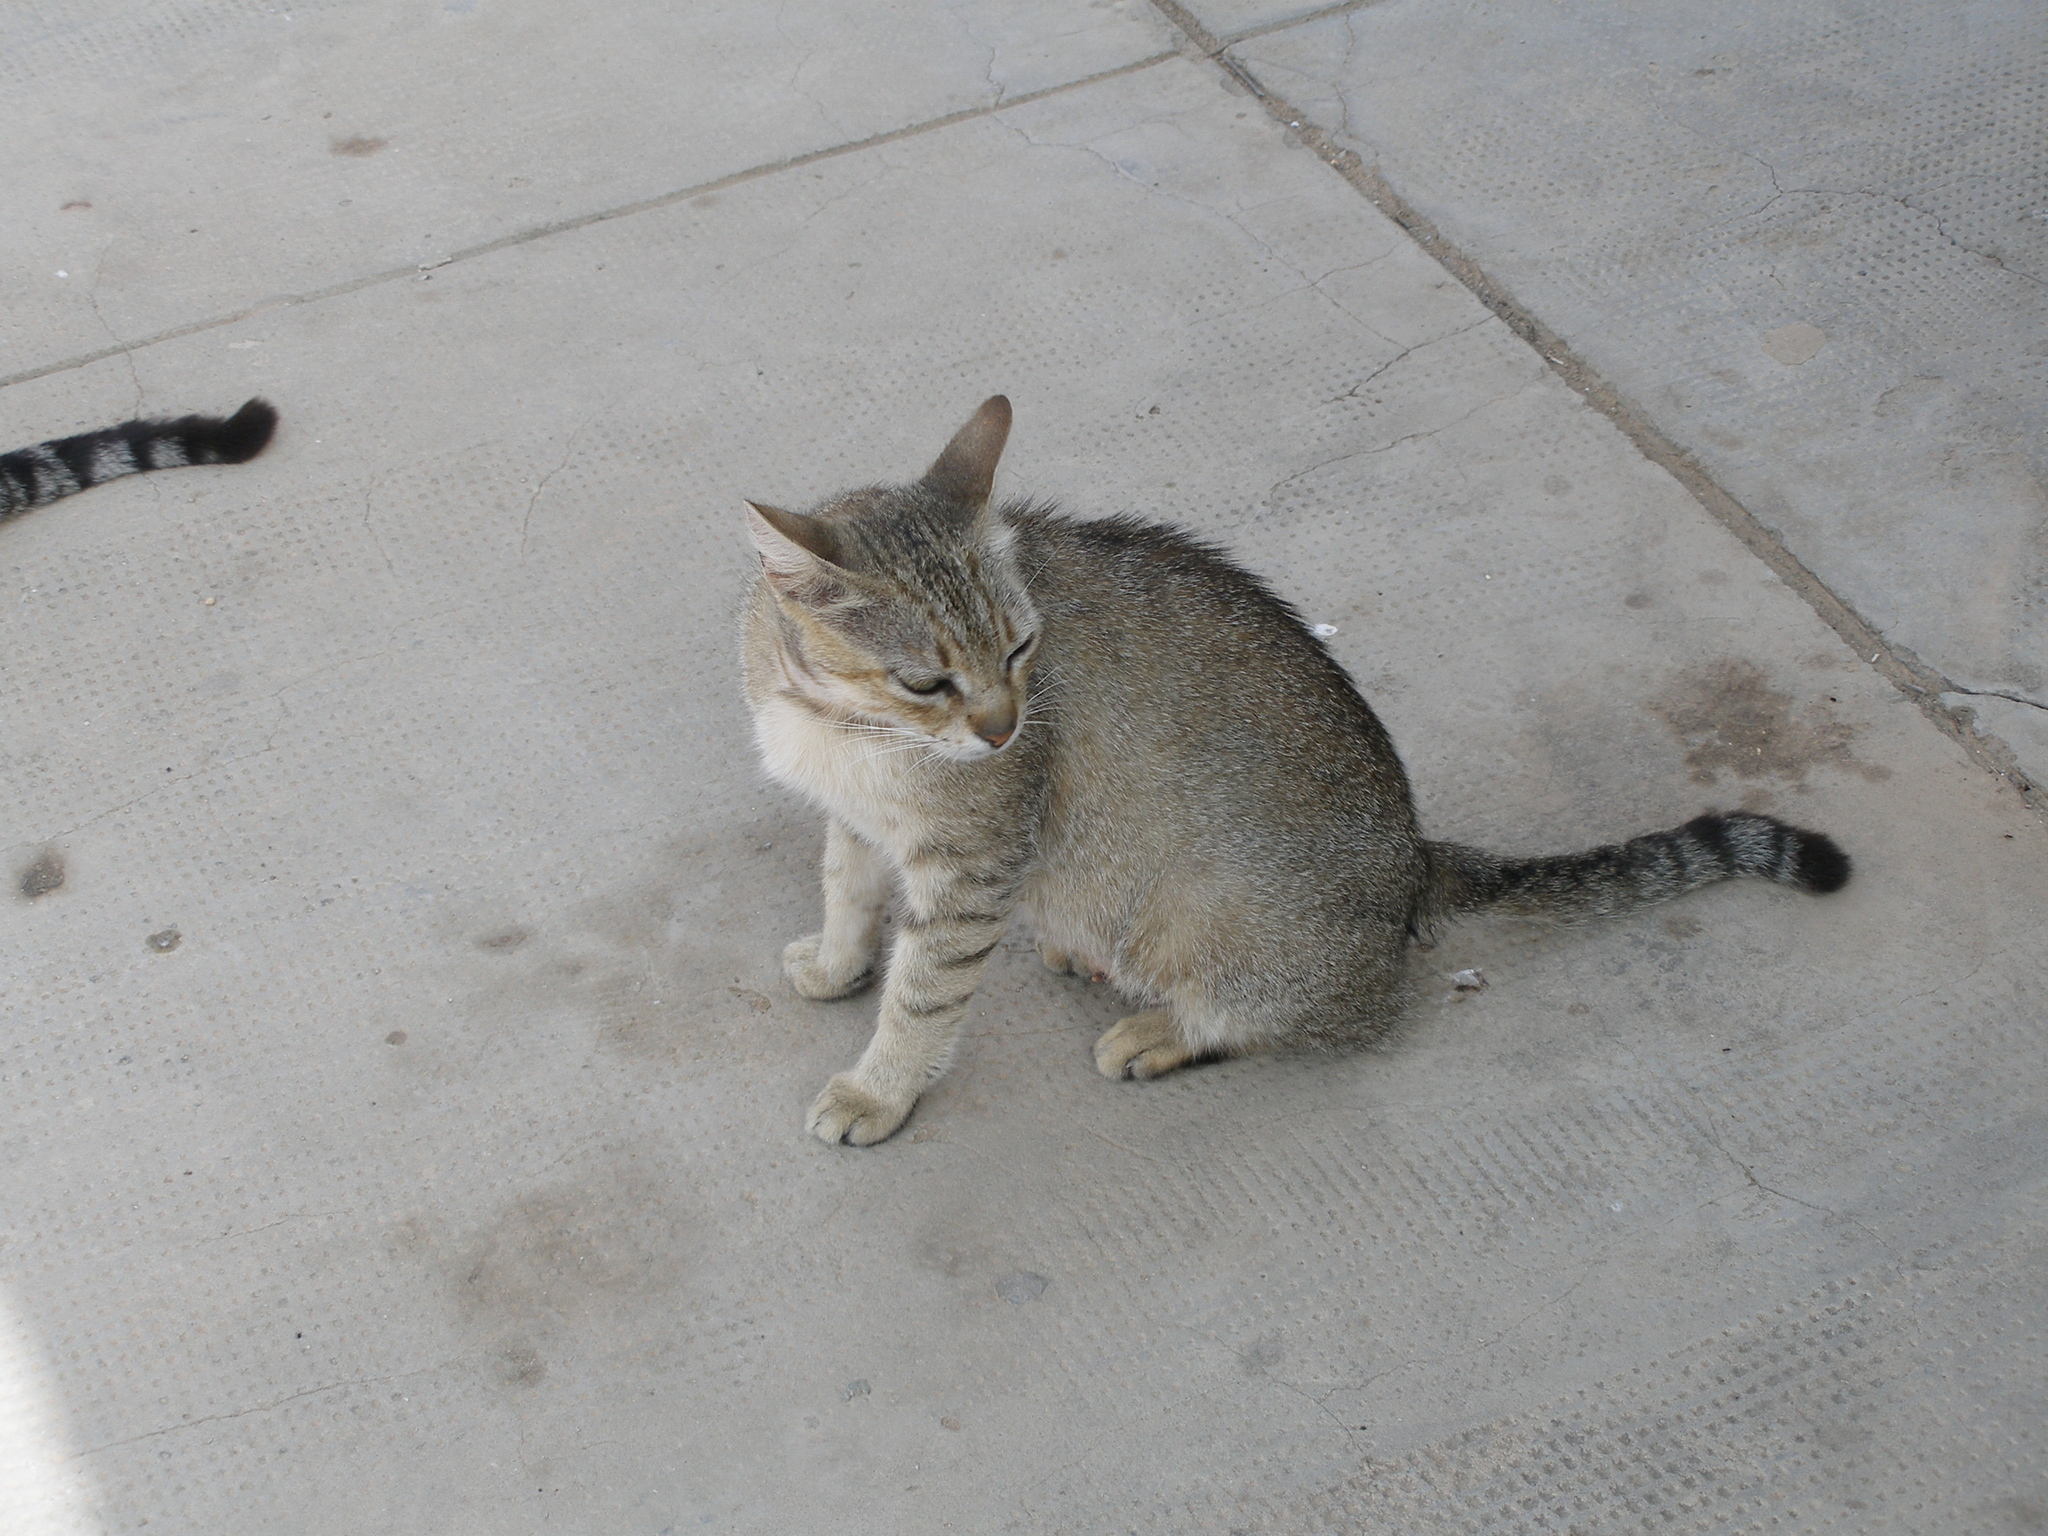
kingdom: Animalia
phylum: Chordata
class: Mammalia
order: Carnivora
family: Felidae
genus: Felis
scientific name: Felis catus
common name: Domestic cat
